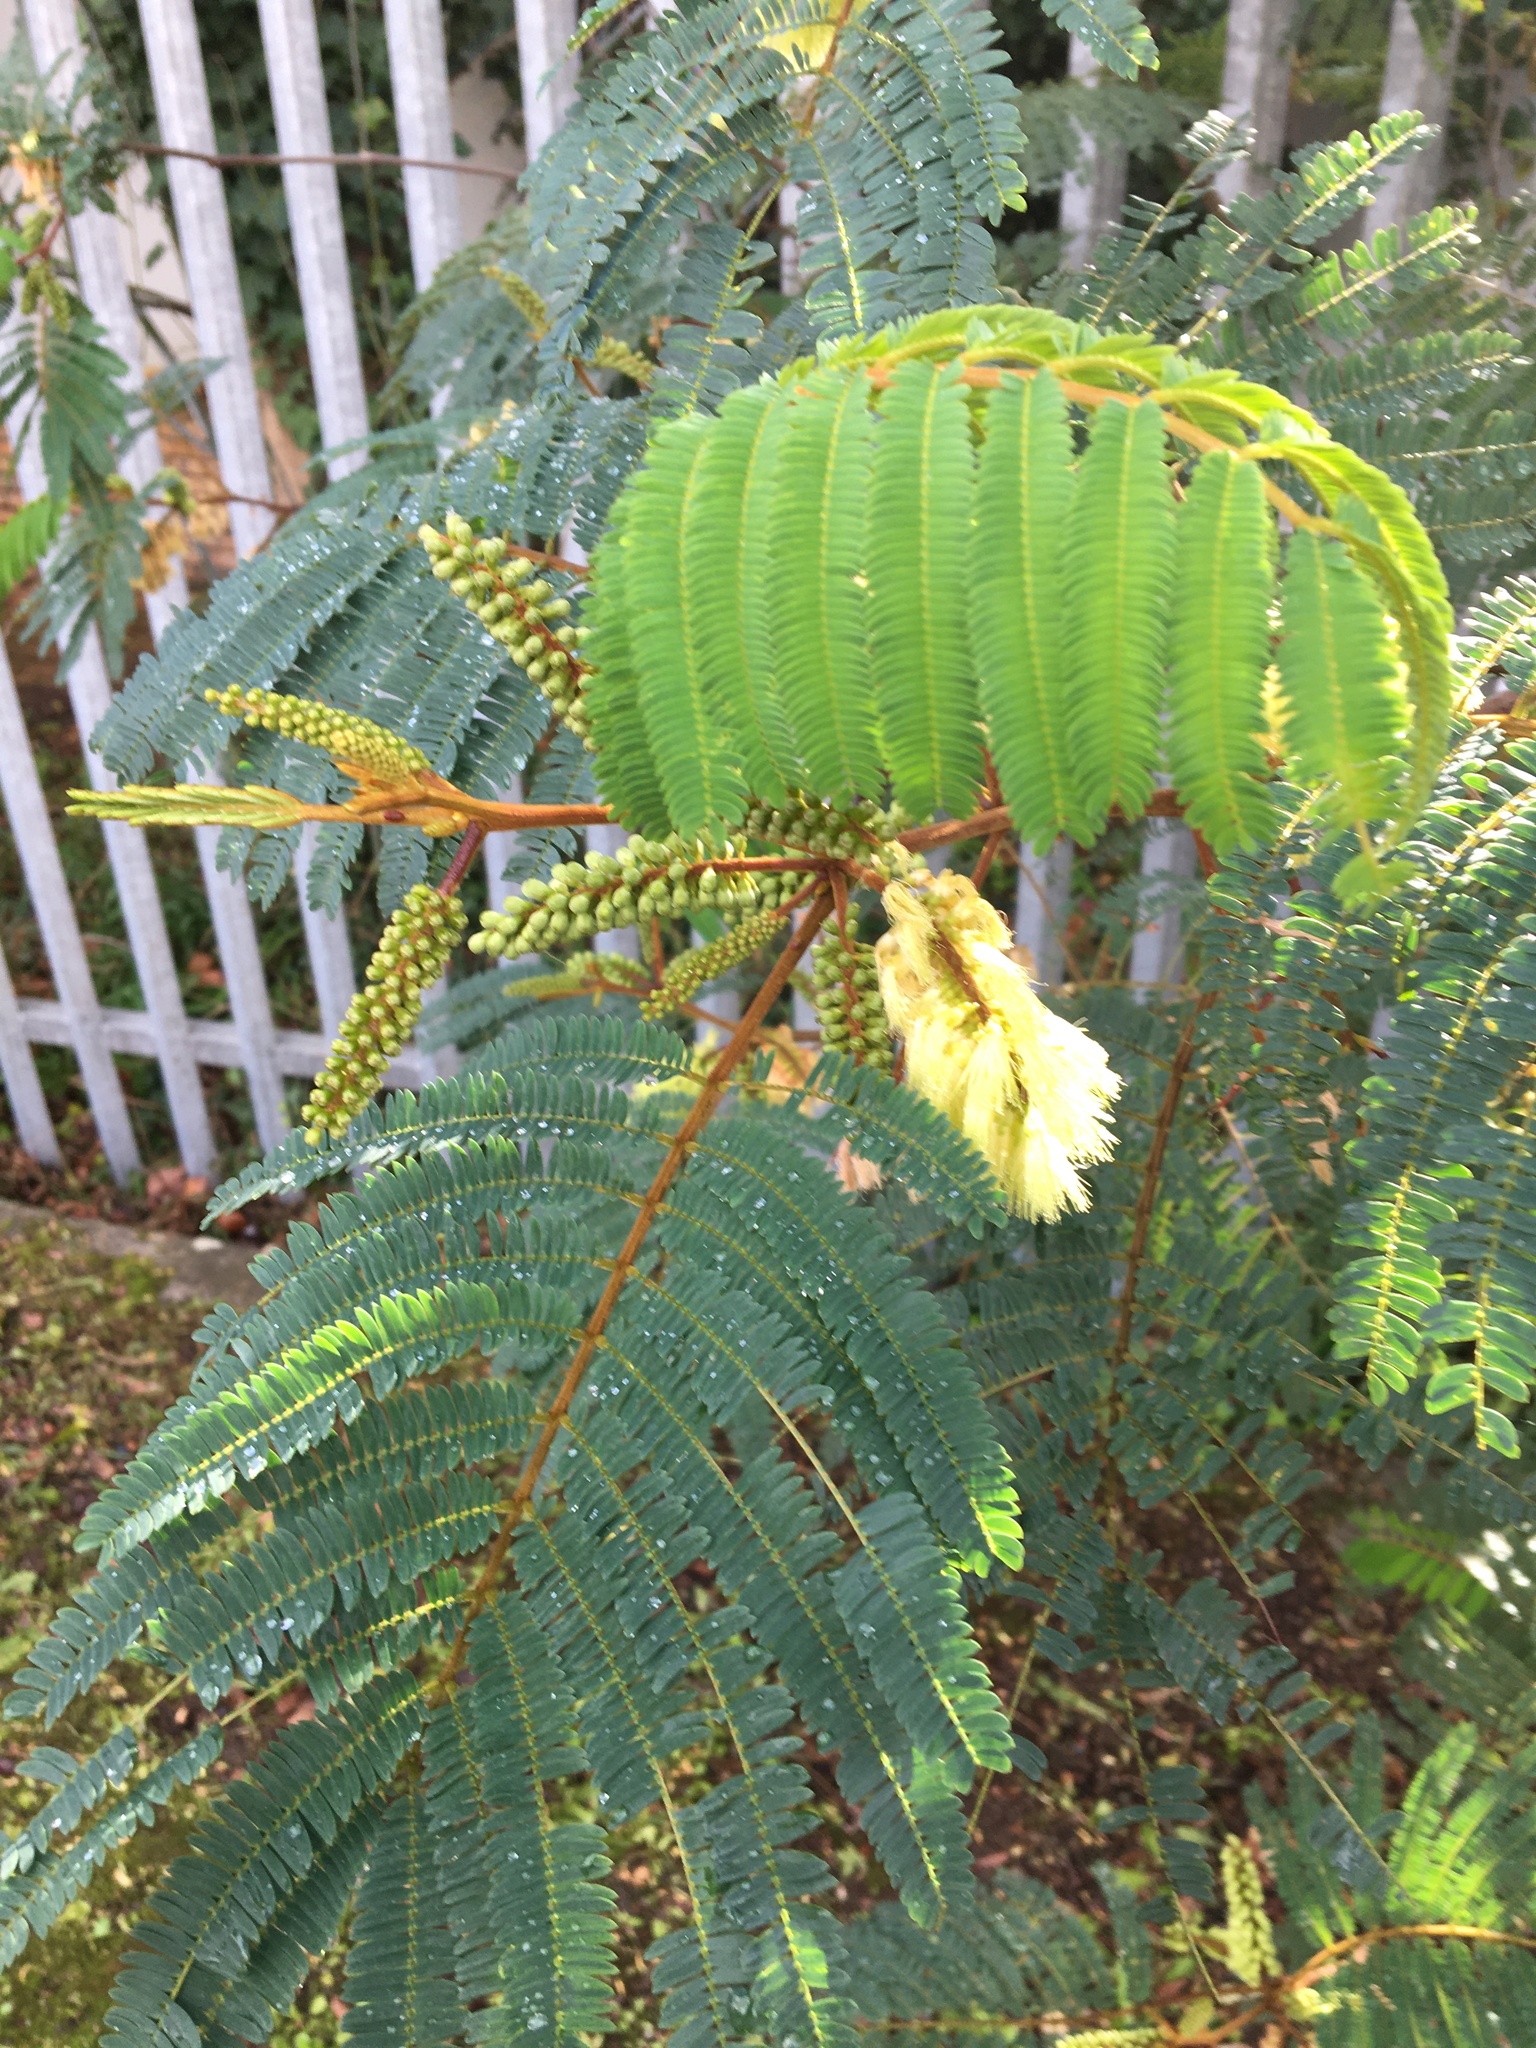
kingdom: Plantae
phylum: Tracheophyta
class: Magnoliopsida
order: Fabales
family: Fabaceae
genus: Paraserianthes
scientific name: Paraserianthes lophantha
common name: Plume albizia
